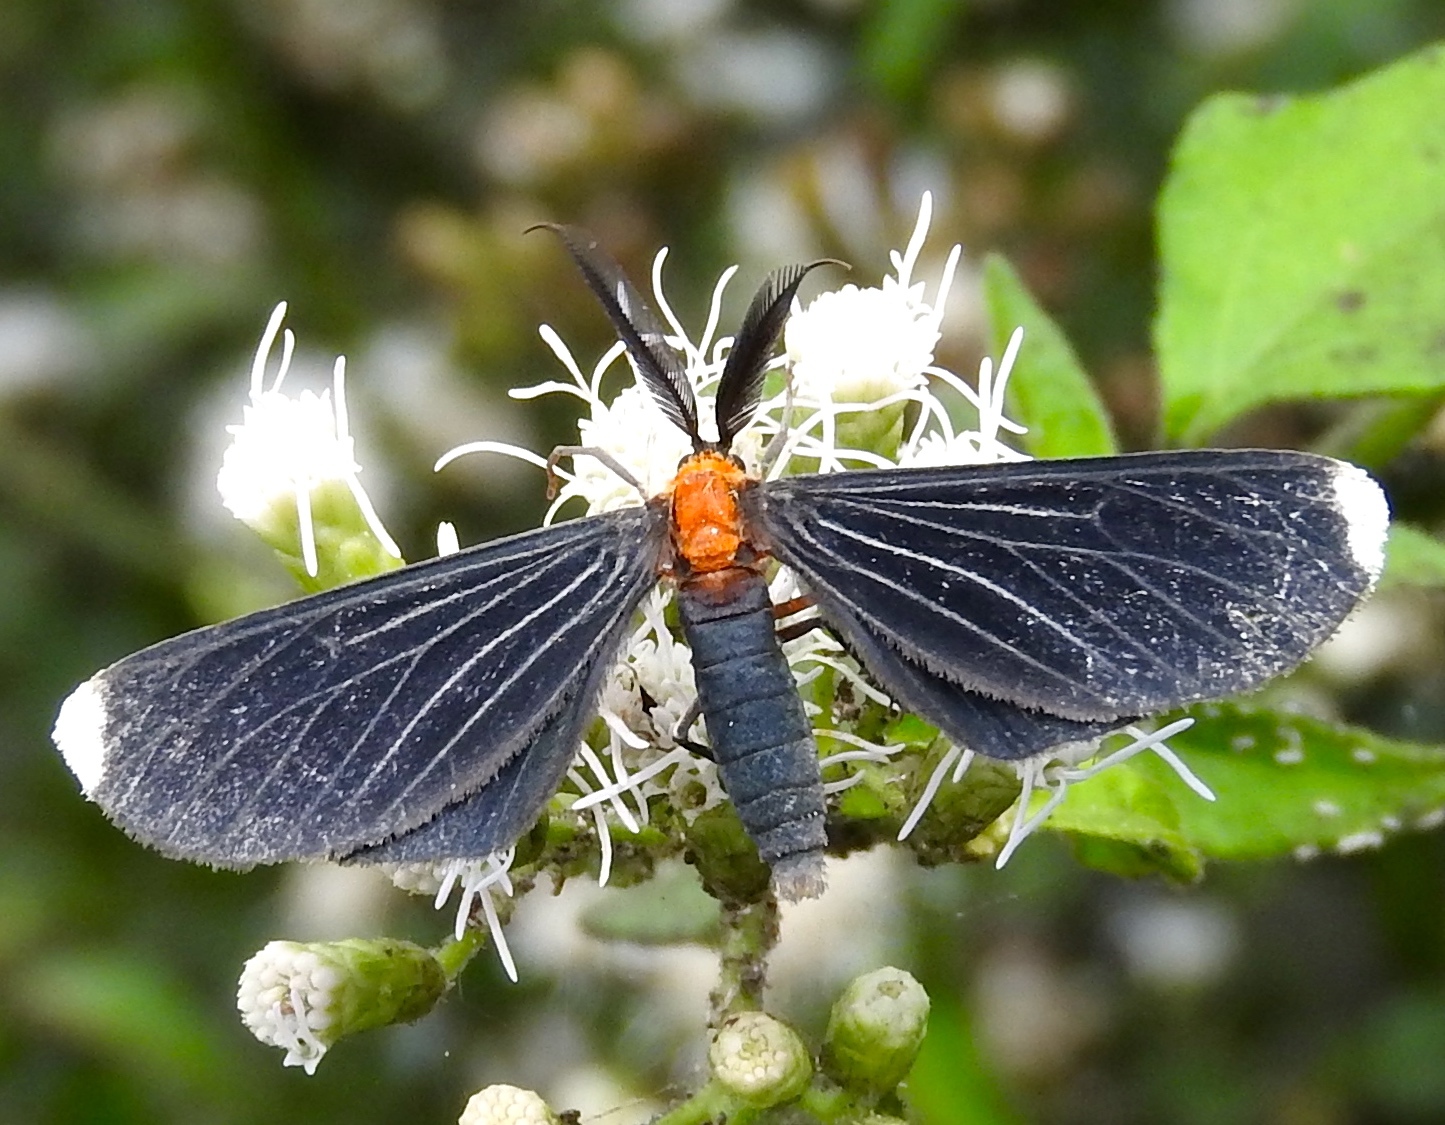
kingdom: Animalia
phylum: Arthropoda
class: Insecta
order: Lepidoptera
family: Geometridae
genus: Melanchroia
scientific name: Melanchroia chephise
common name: White-tipped black
